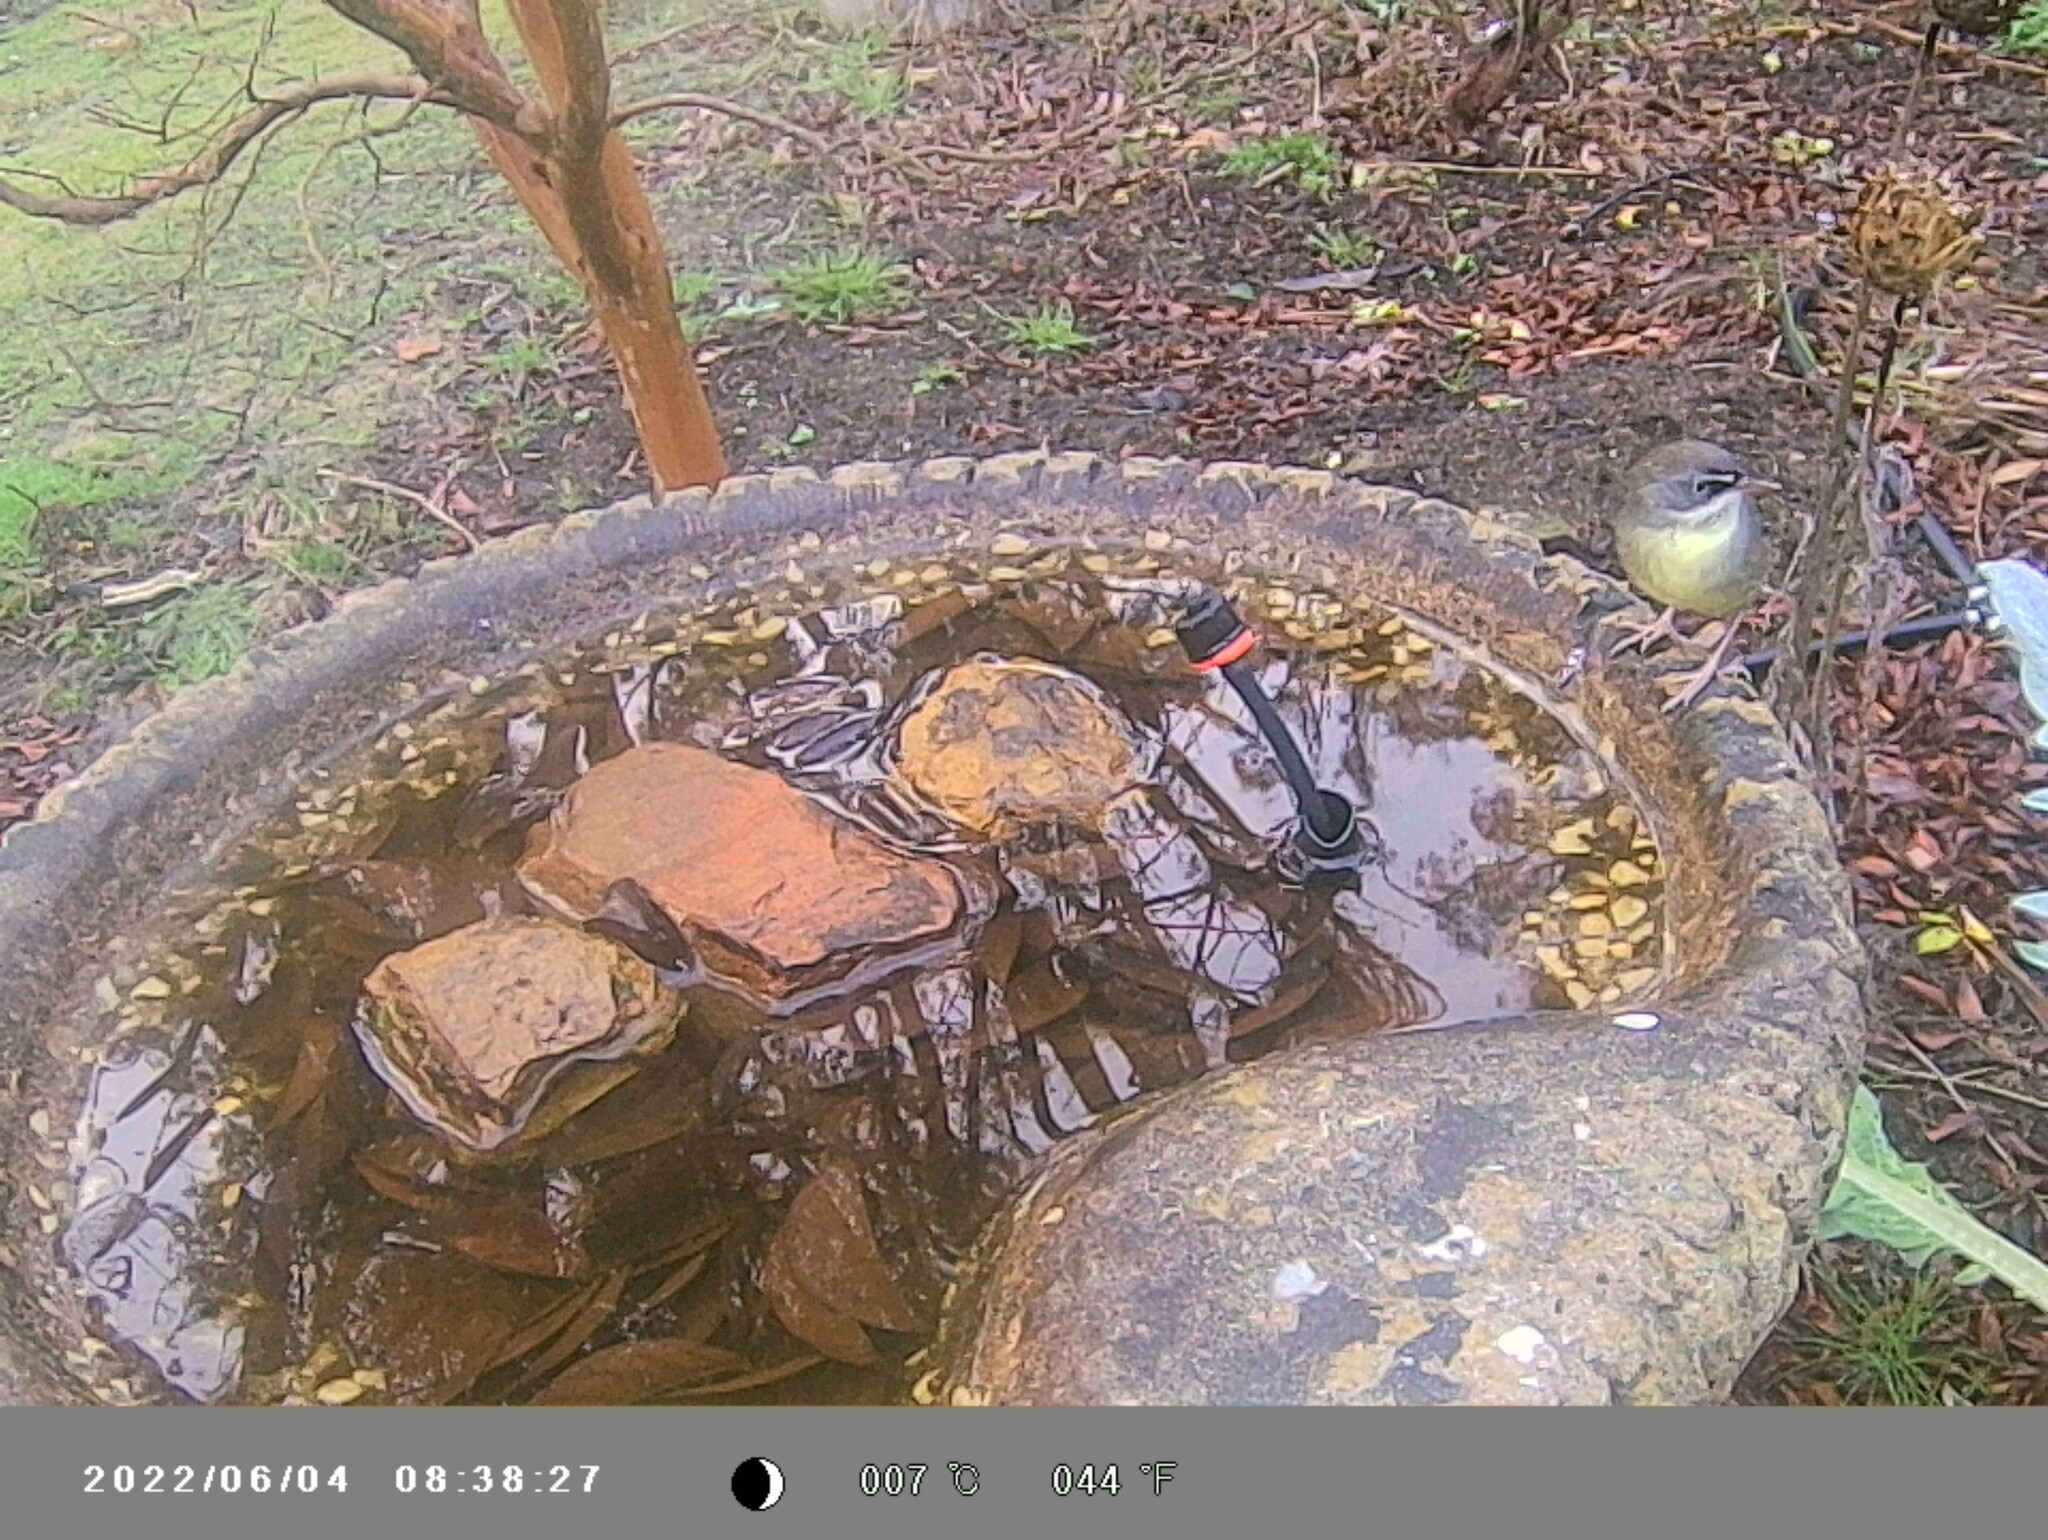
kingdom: Animalia
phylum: Chordata
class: Aves
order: Passeriformes
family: Acanthizidae
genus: Sericornis
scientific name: Sericornis frontalis
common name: White-browed scrubwren
